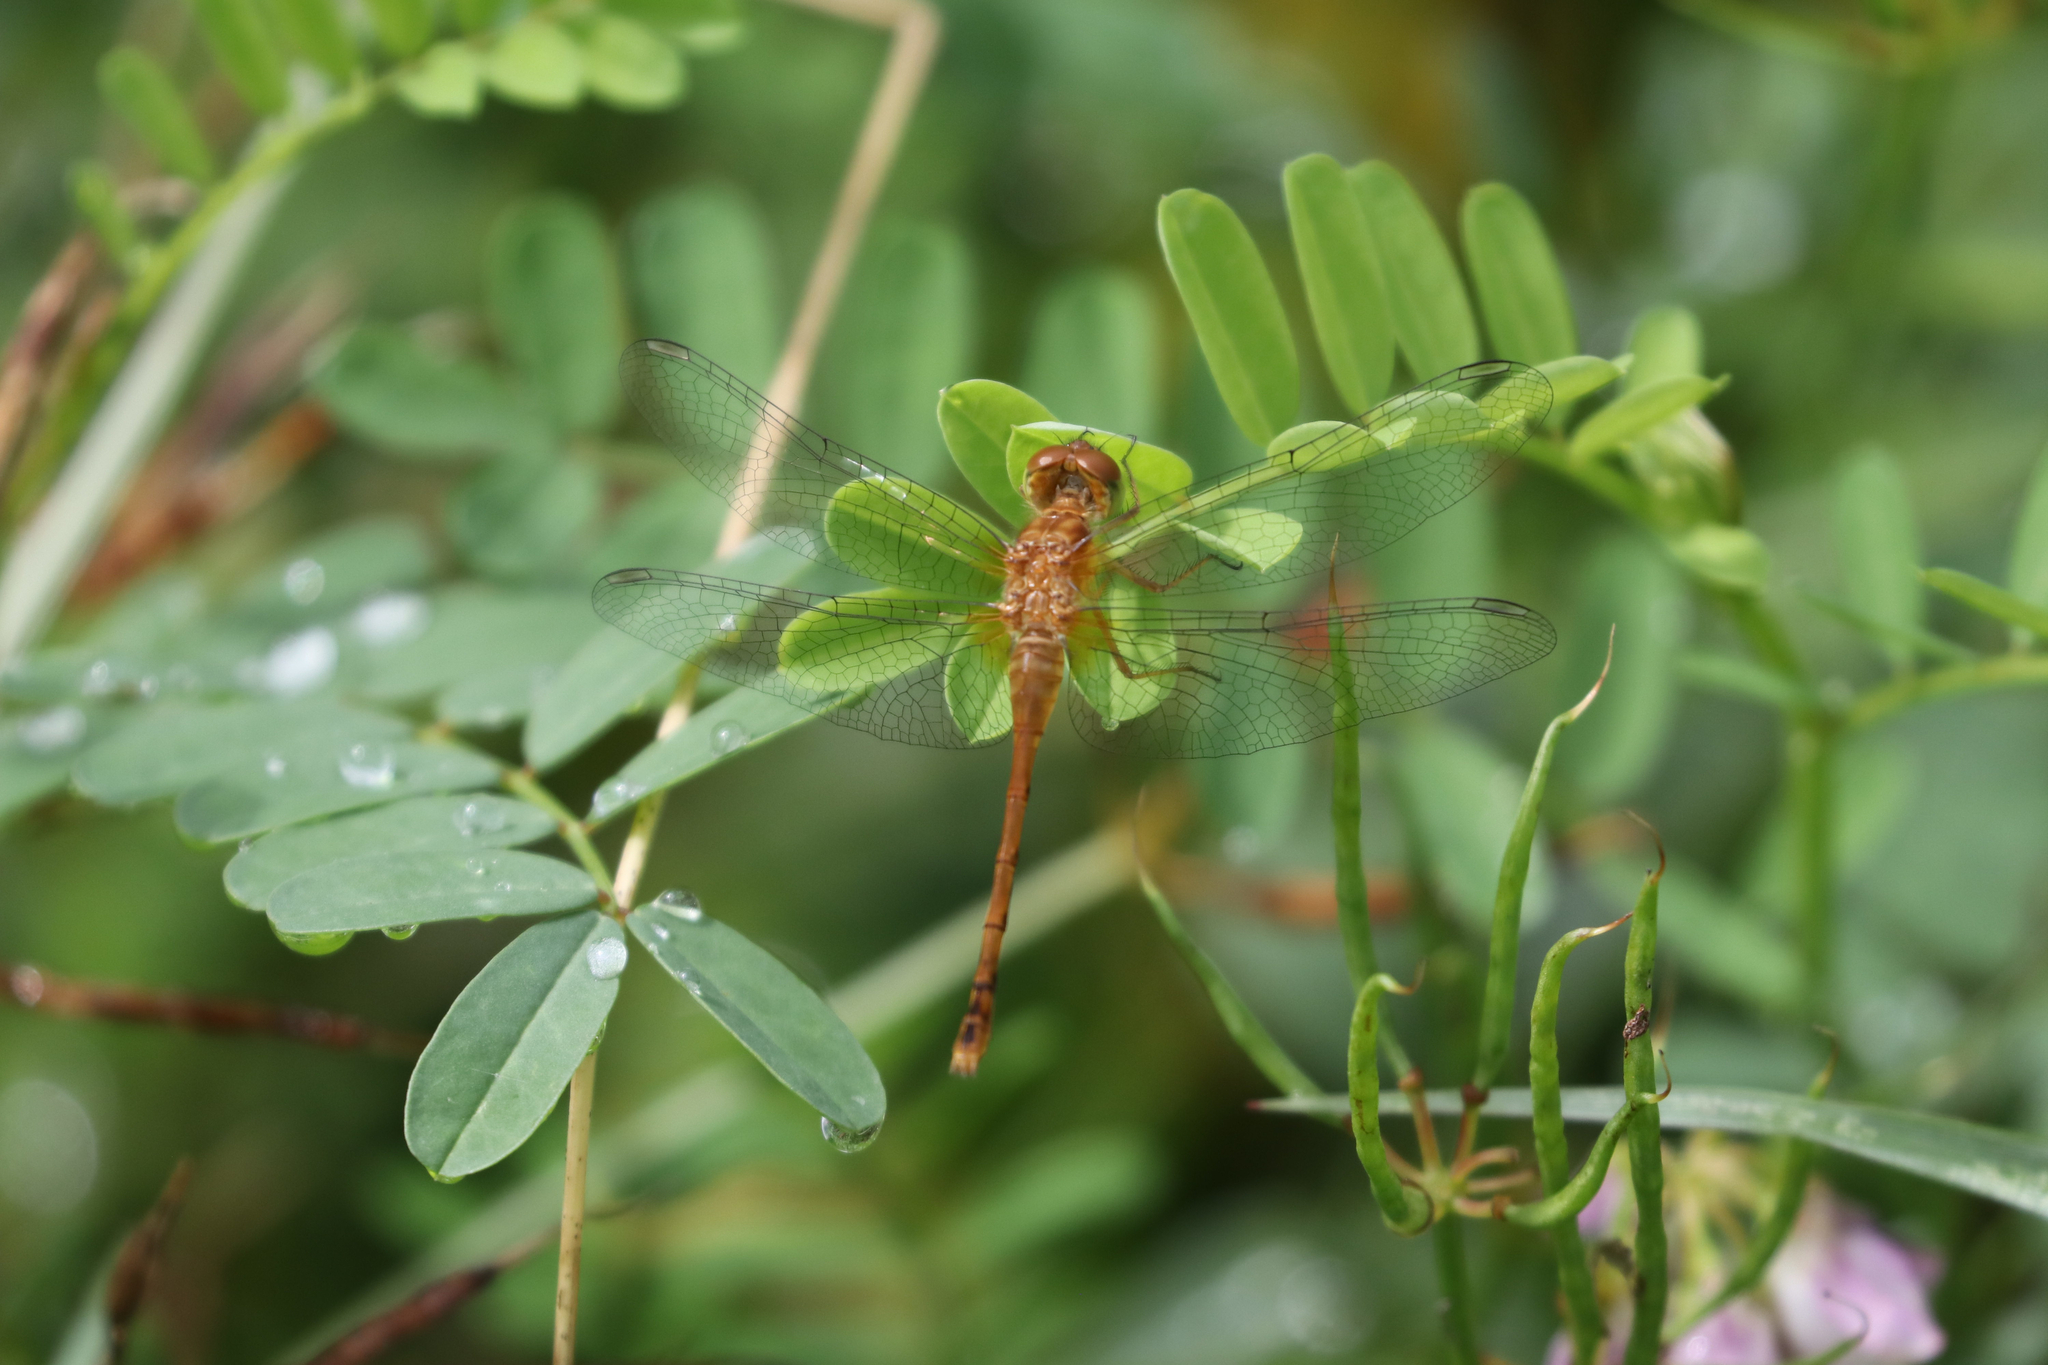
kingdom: Animalia
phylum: Arthropoda
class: Insecta
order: Odonata
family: Libellulidae
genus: Sympetrum
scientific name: Sympetrum vicinum
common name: Autumn meadowhawk
